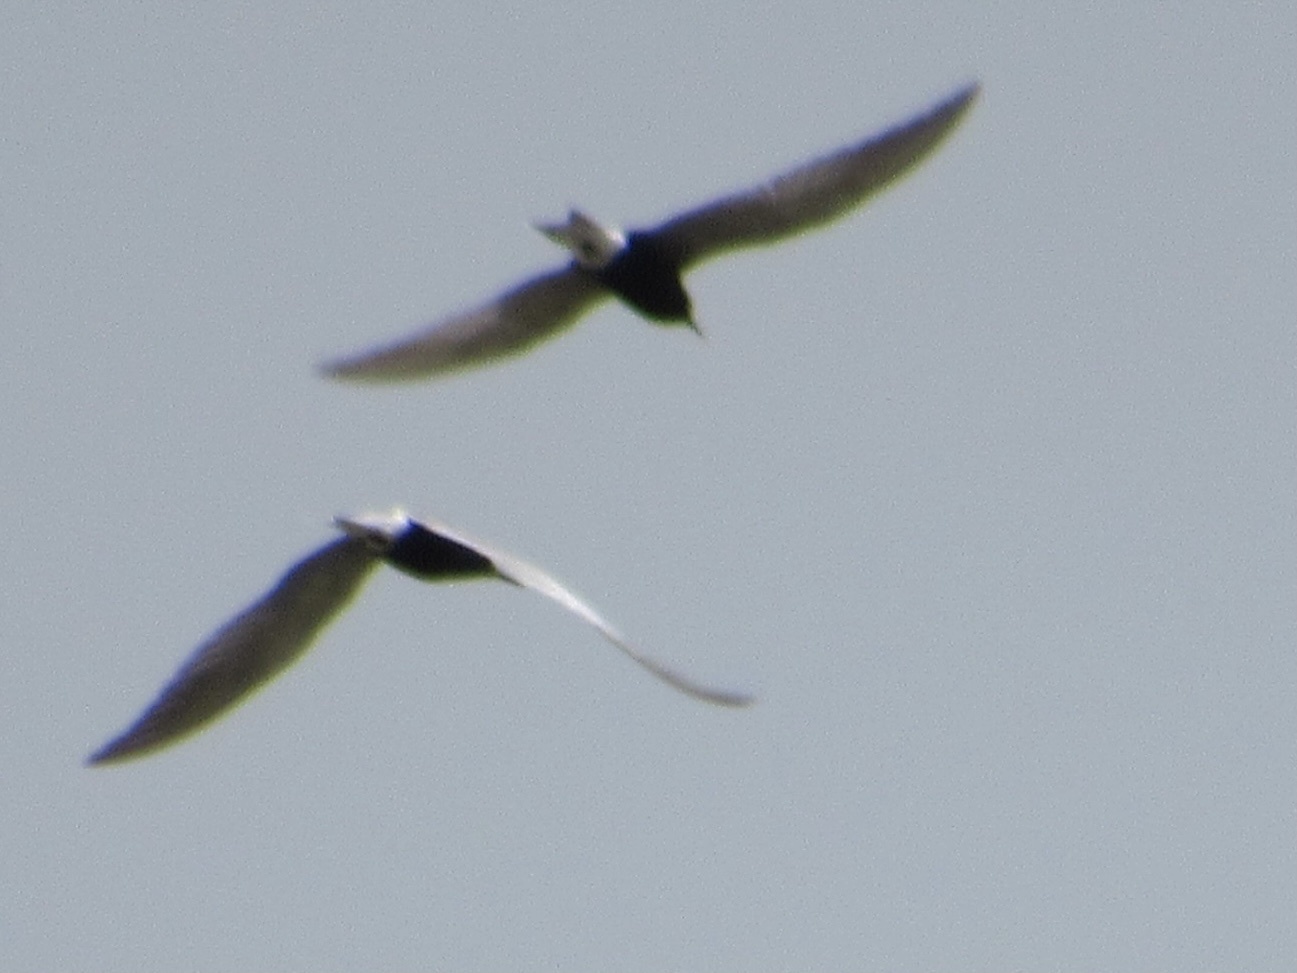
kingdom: Animalia
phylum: Chordata
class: Aves
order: Charadriiformes
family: Laridae
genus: Chlidonias
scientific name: Chlidonias niger
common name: Black tern
